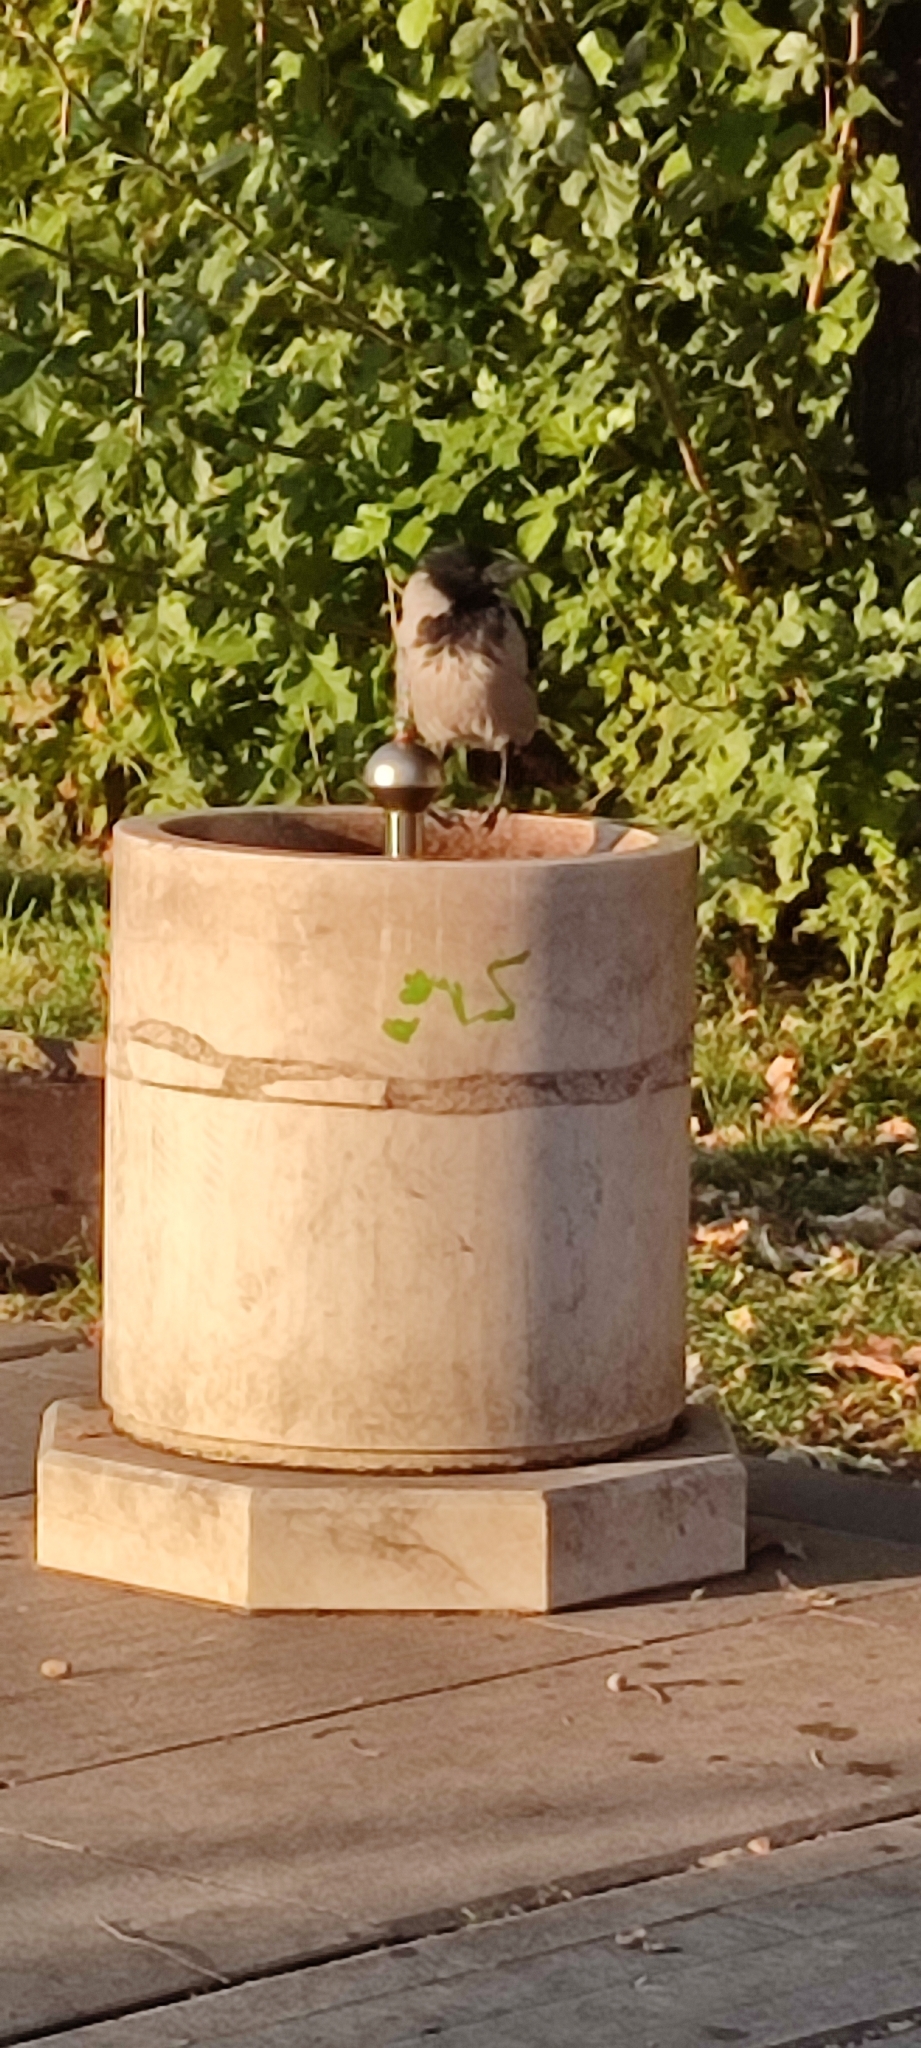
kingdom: Animalia
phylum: Chordata
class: Aves
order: Passeriformes
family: Corvidae
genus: Corvus
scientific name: Corvus cornix
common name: Hooded crow
